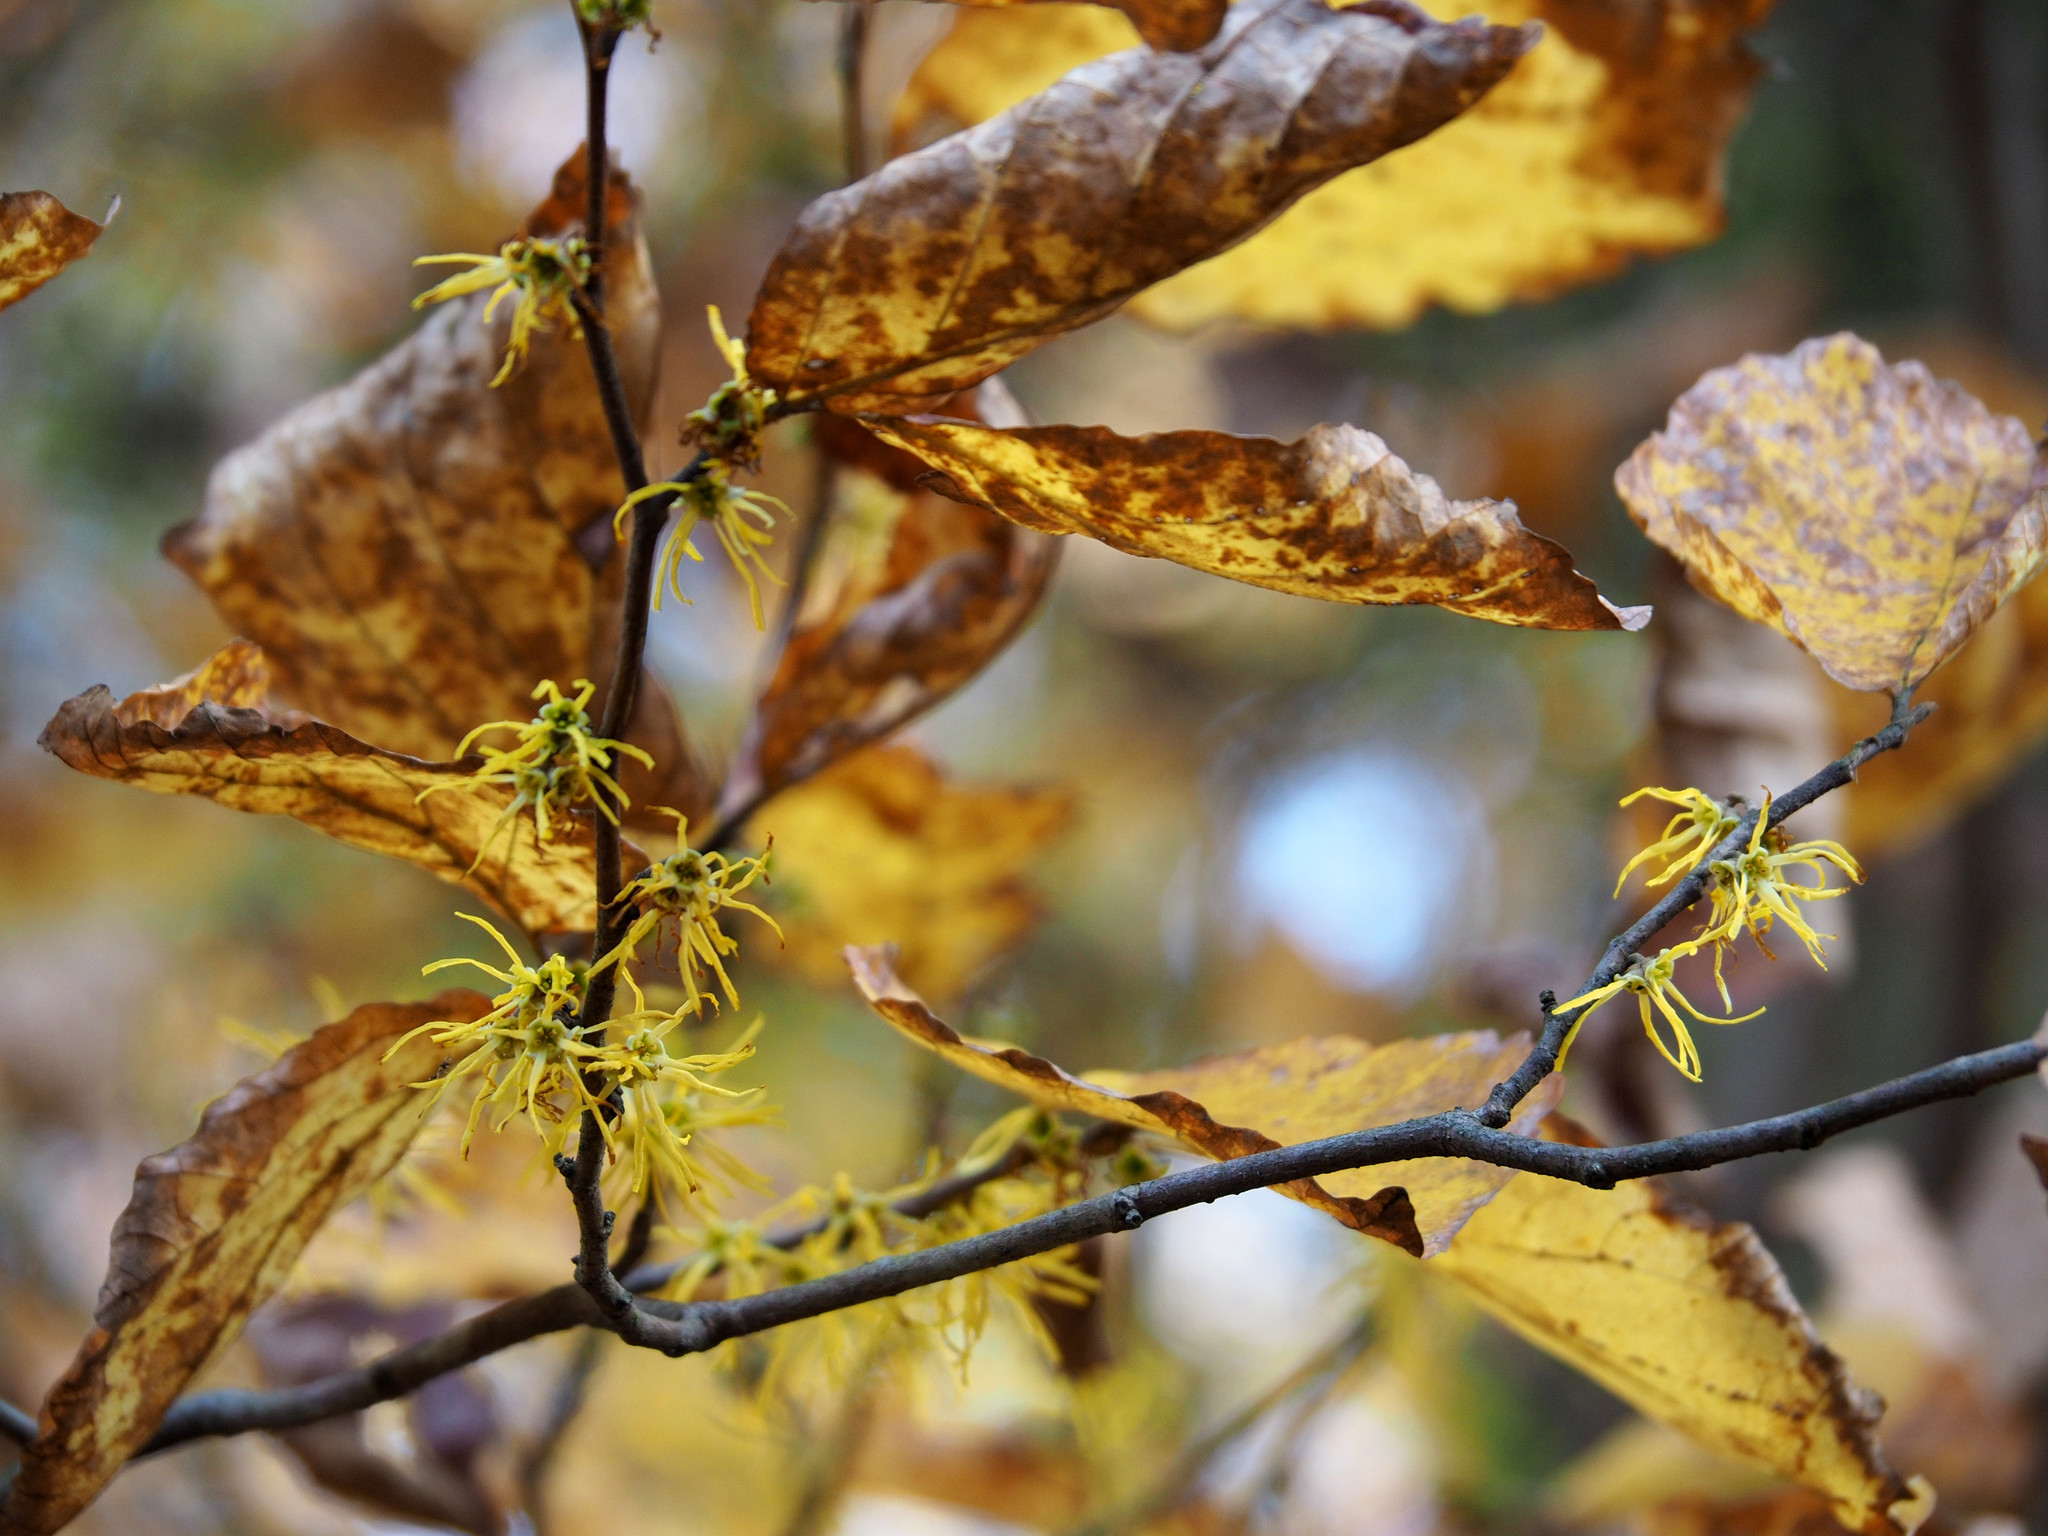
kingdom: Plantae
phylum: Tracheophyta
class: Magnoliopsida
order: Saxifragales
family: Hamamelidaceae
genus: Hamamelis
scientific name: Hamamelis virginiana
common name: Witch-hazel
